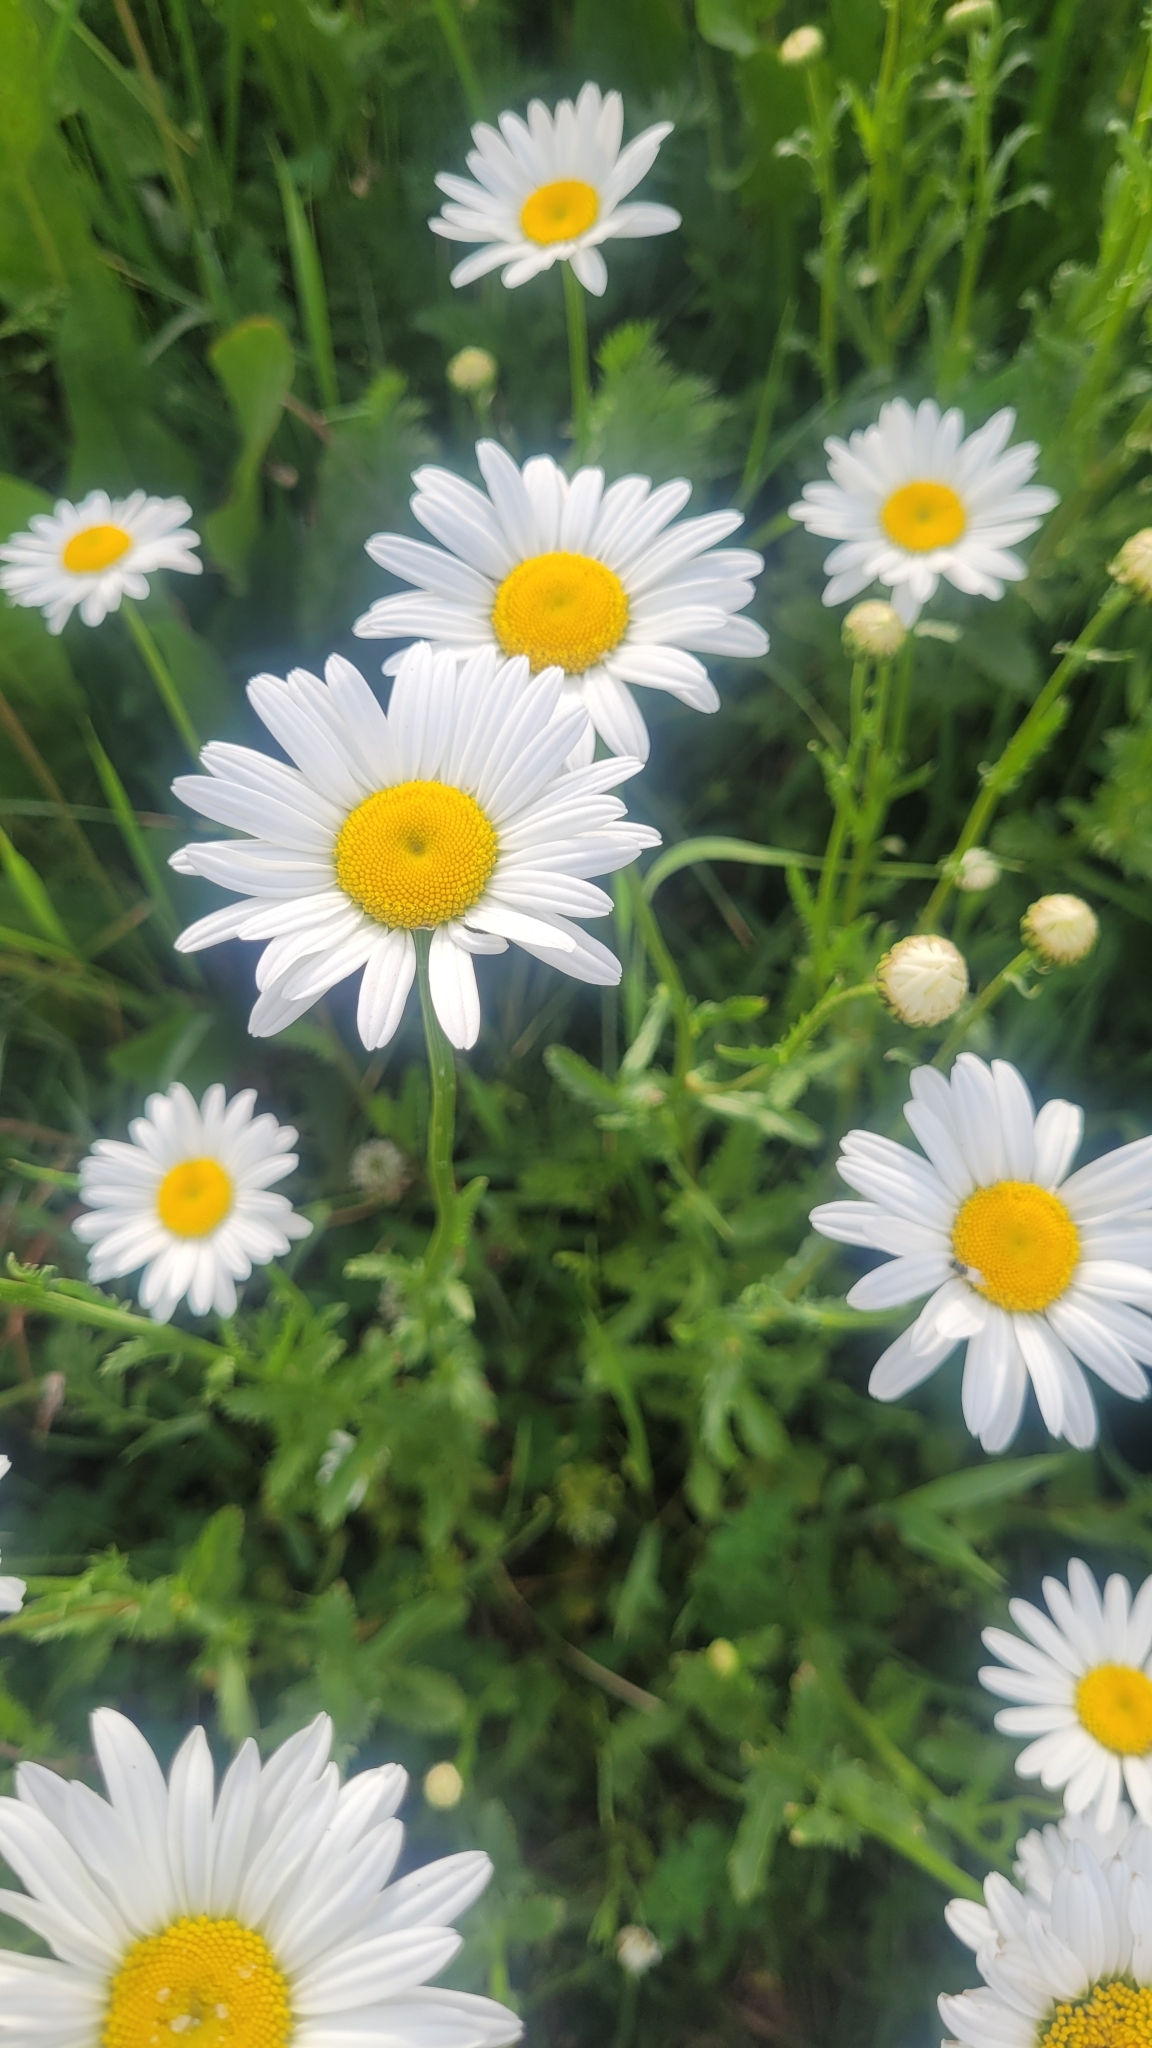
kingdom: Plantae
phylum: Tracheophyta
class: Magnoliopsida
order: Asterales
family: Asteraceae
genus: Leucanthemum
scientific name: Leucanthemum vulgare
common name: Oxeye daisy
